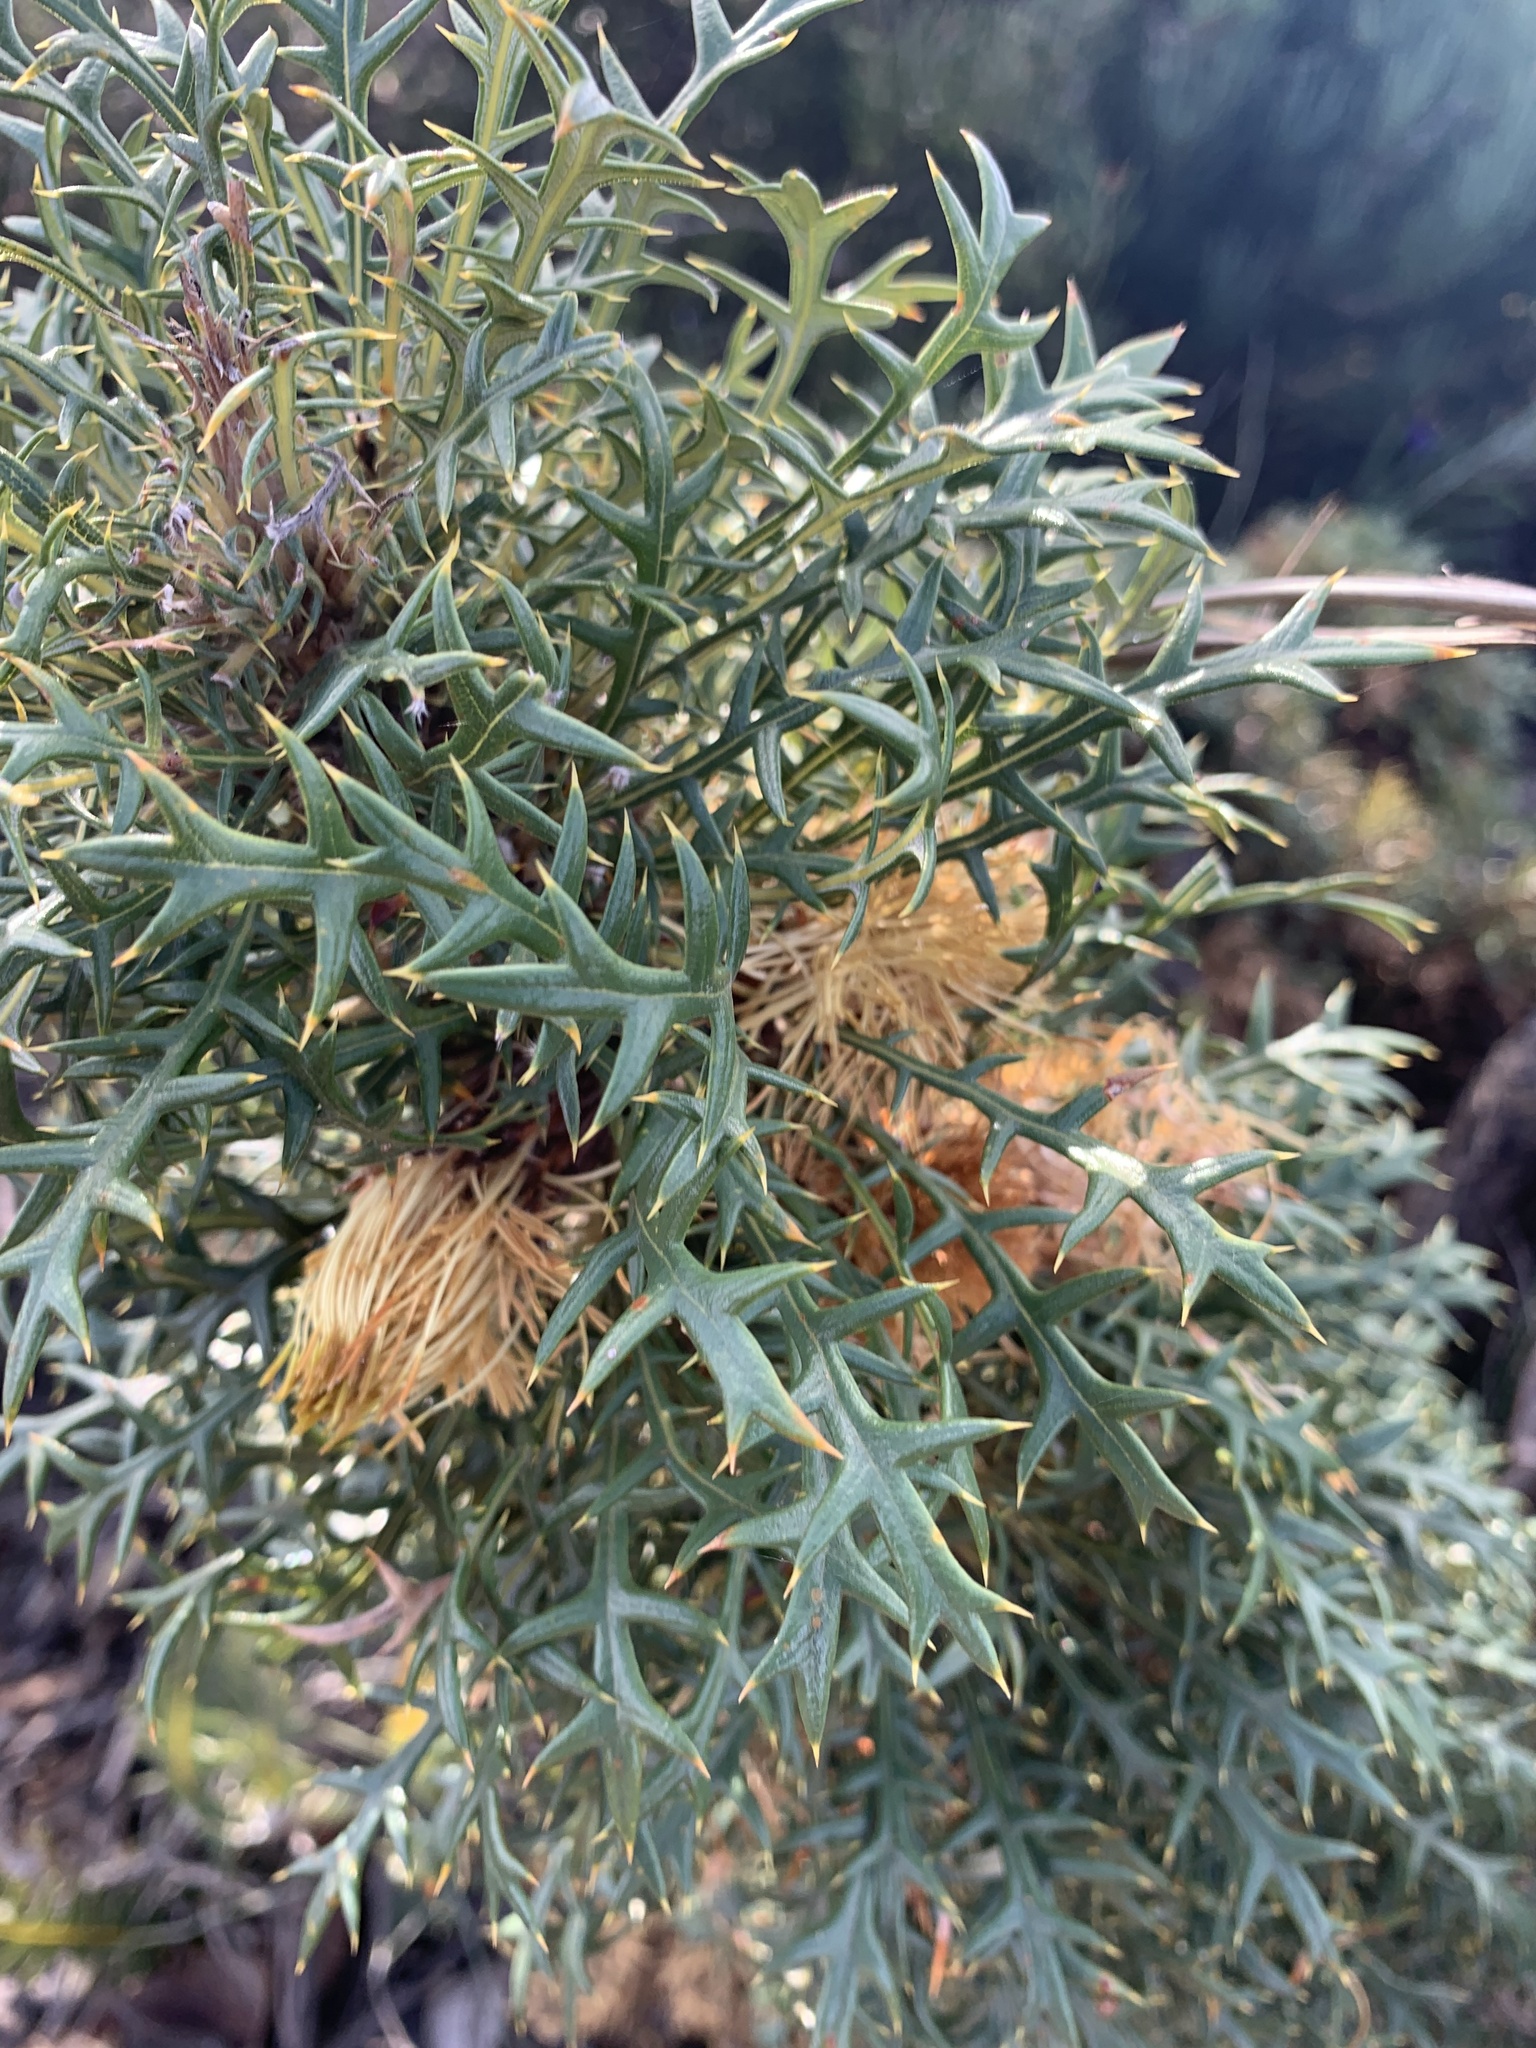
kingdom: Plantae
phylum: Tracheophyta
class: Magnoliopsida
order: Proteales
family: Proteaceae
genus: Banksia
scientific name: Banksia cirsioides
